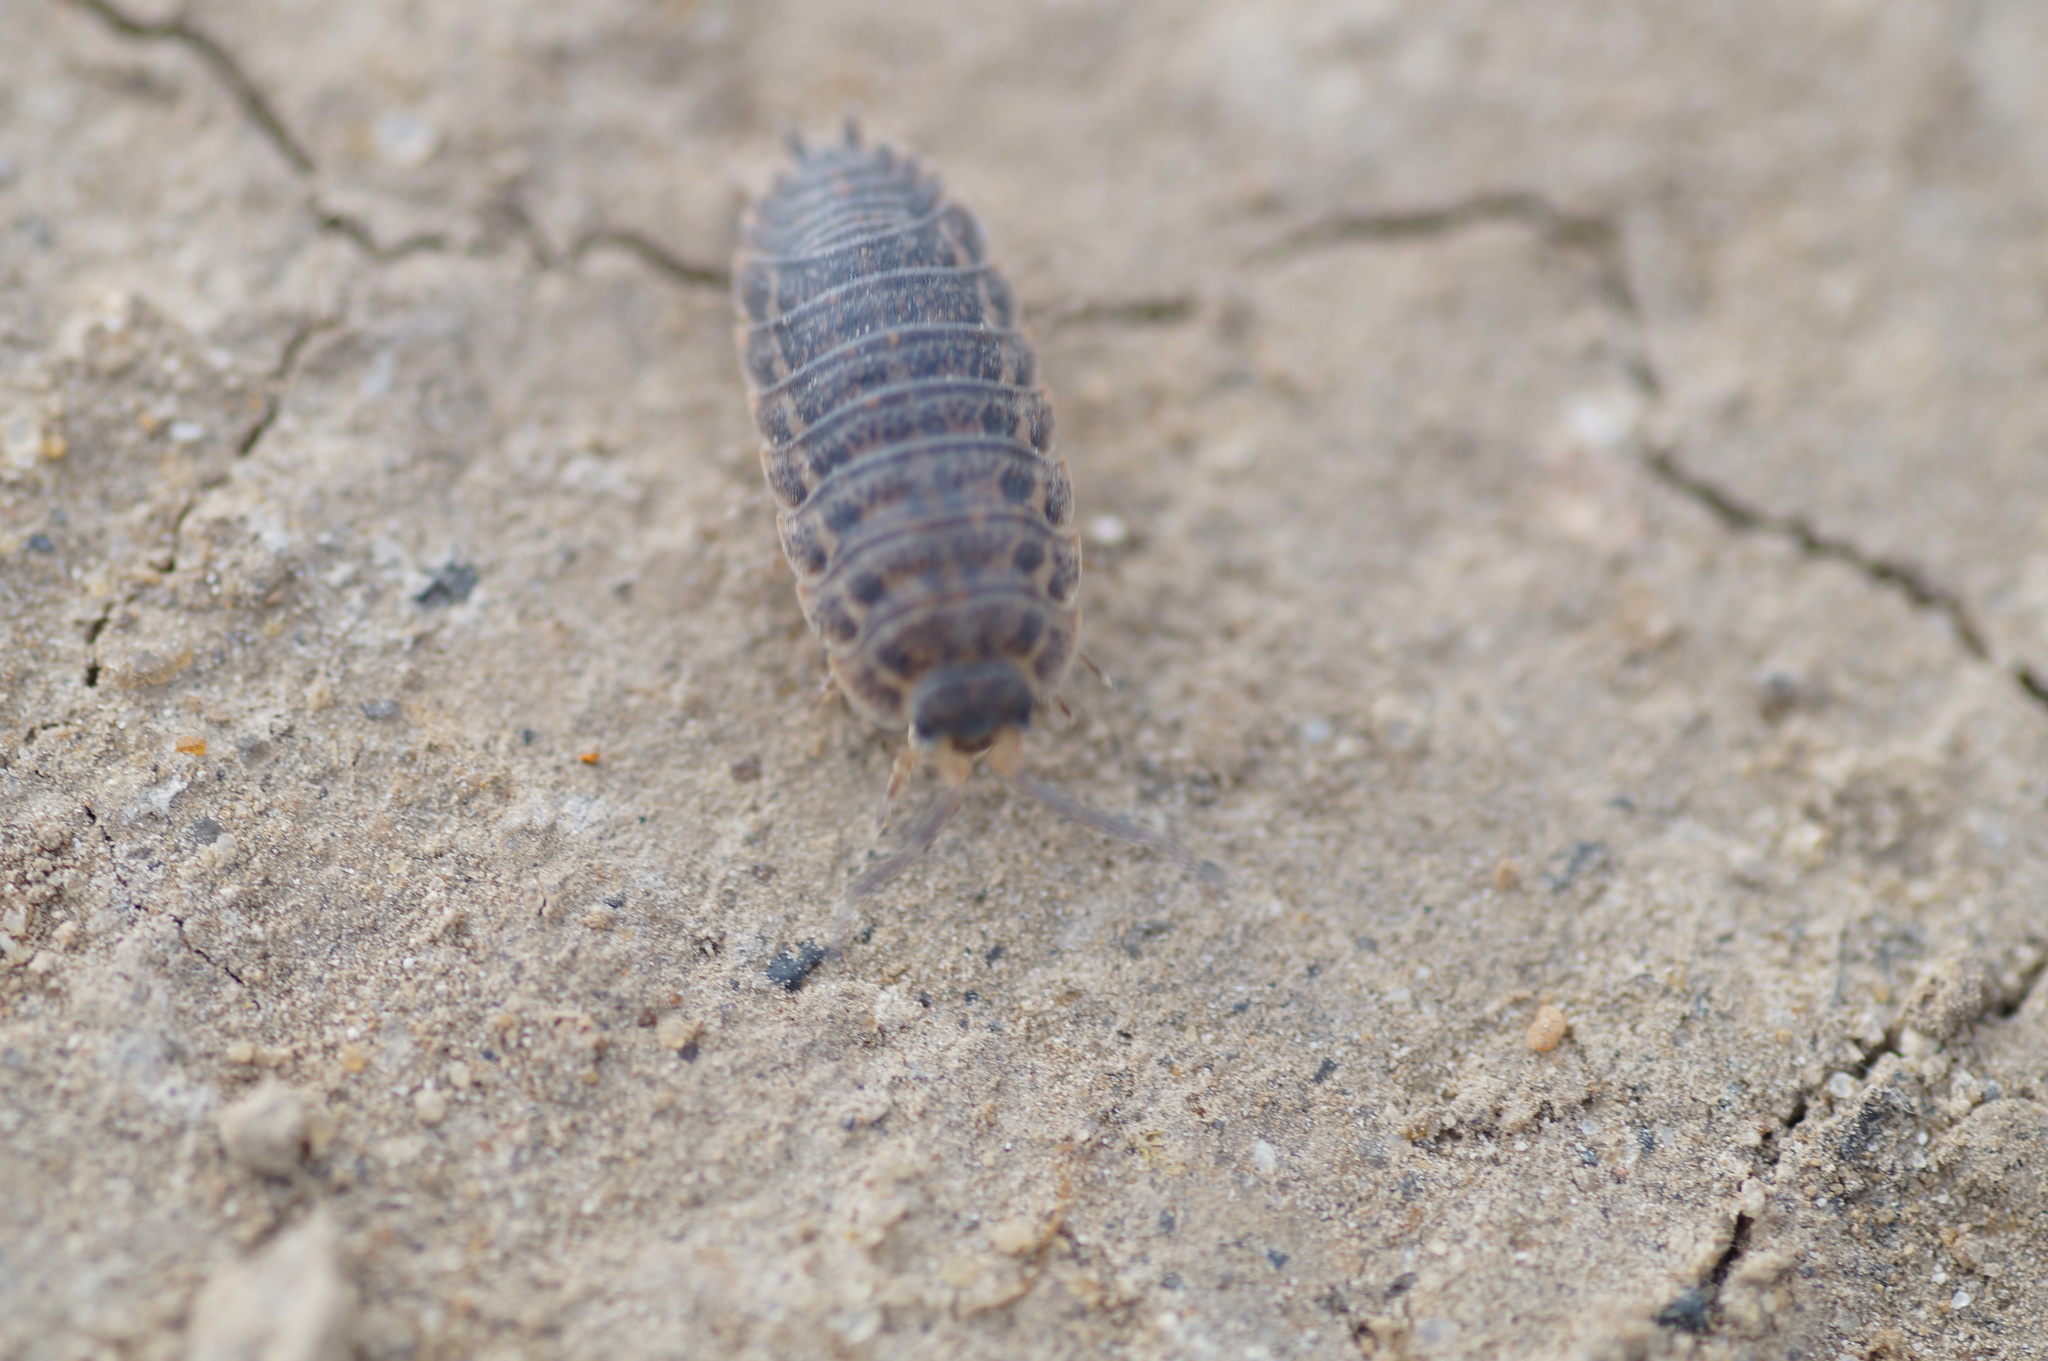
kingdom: Animalia
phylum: Arthropoda
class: Malacostraca
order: Isopoda
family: Trachelipodidae
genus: Trachelipus
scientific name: Trachelipus rathkii
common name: Isopod
